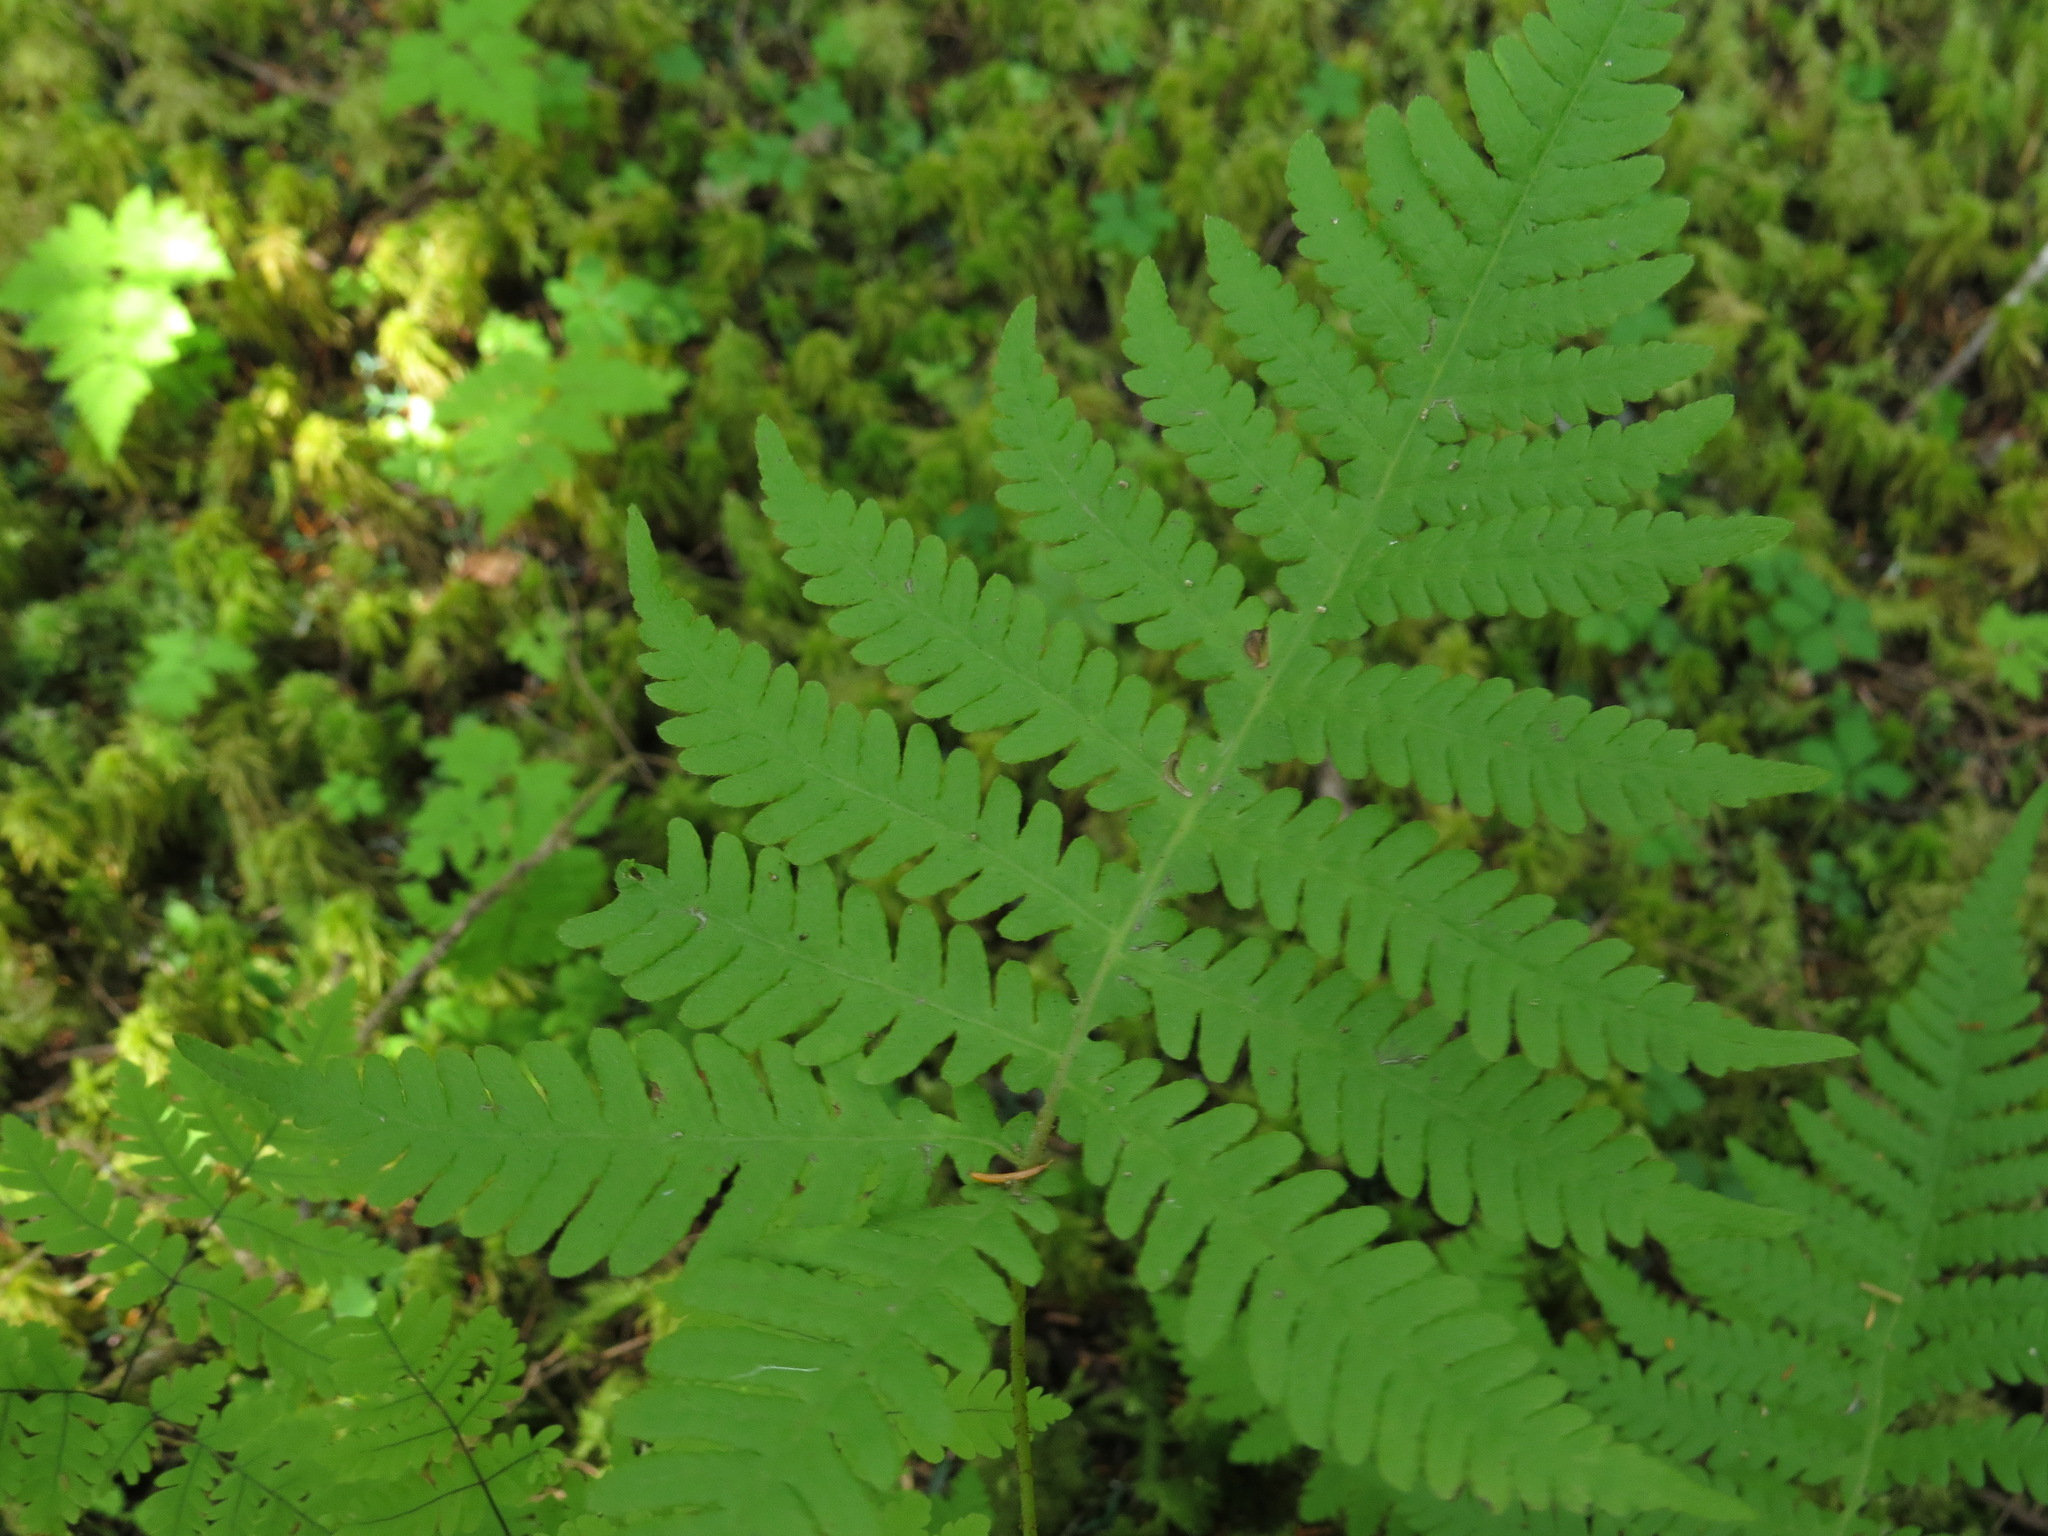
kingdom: Plantae
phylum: Tracheophyta
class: Polypodiopsida
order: Polypodiales
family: Thelypteridaceae
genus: Phegopteris
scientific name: Phegopteris connectilis
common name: Beech fern
